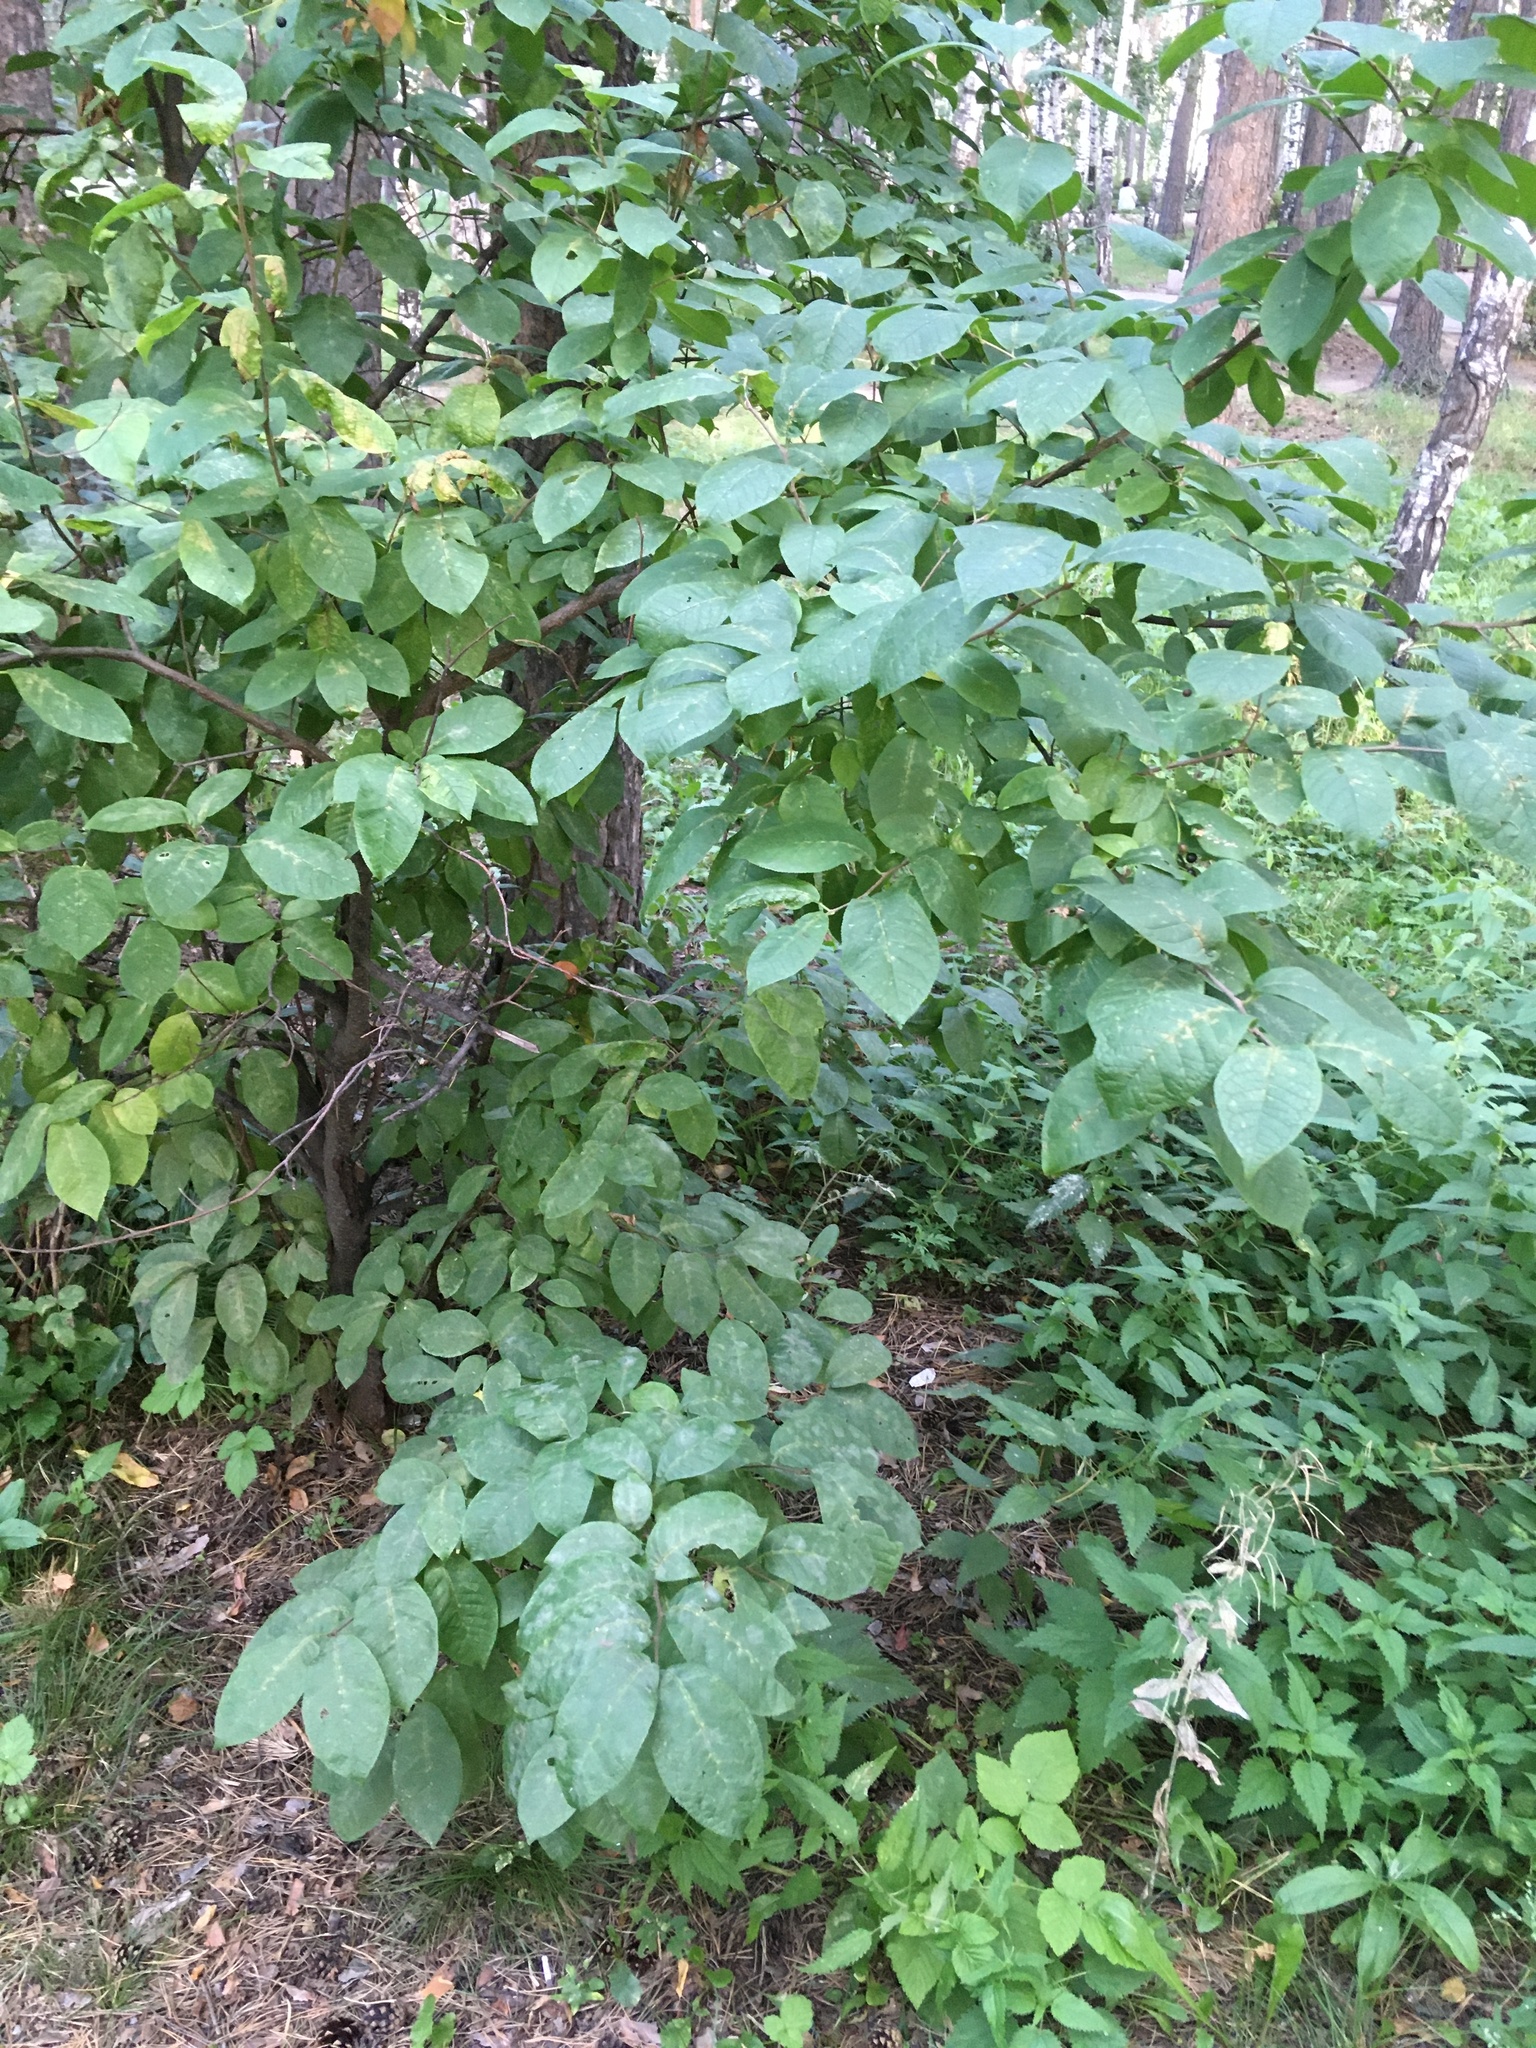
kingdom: Plantae
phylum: Tracheophyta
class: Magnoliopsida
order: Rosales
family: Rosaceae
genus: Prunus
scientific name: Prunus padus
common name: Bird cherry
